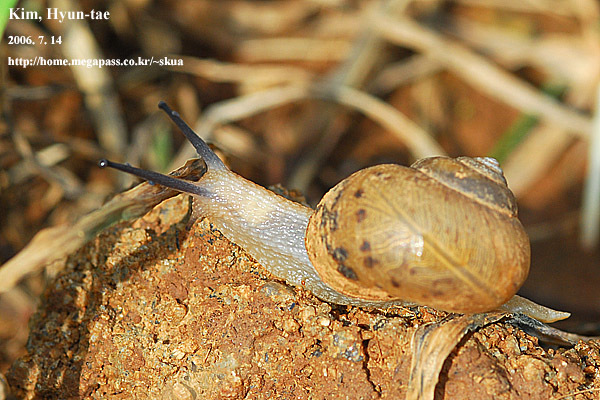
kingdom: Animalia
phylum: Mollusca
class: Gastropoda
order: Stylommatophora
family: Camaenidae
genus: Acusta
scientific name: Acusta redfieldi
